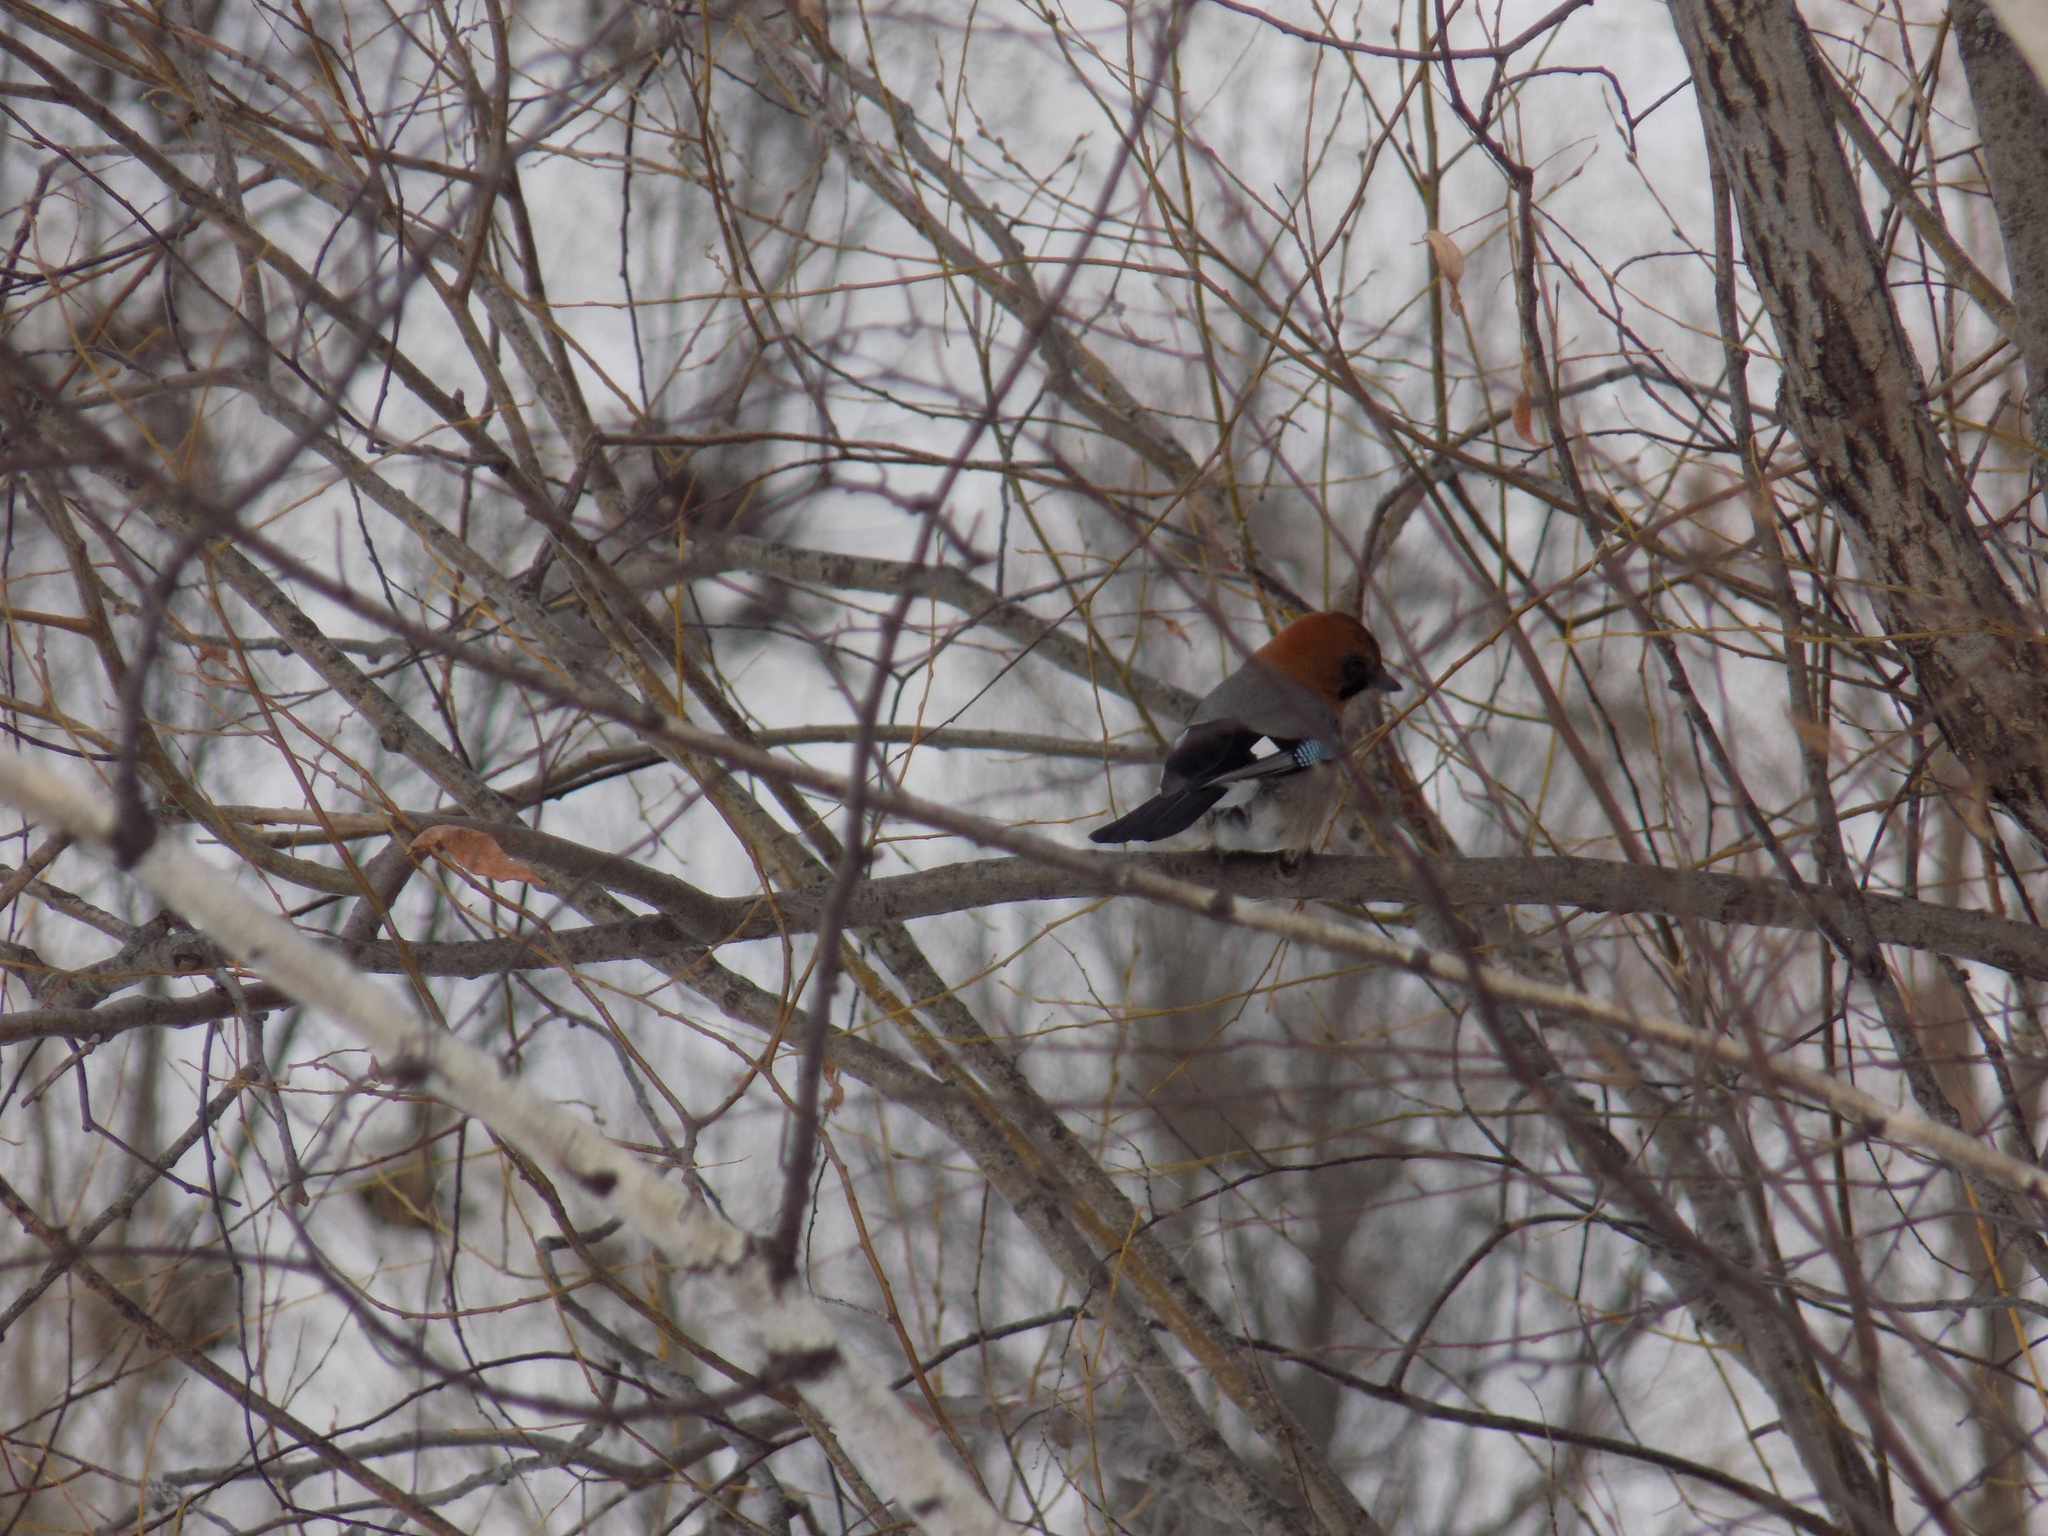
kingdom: Animalia
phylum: Chordata
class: Aves
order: Passeriformes
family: Corvidae
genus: Garrulus
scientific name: Garrulus glandarius
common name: Eurasian jay
